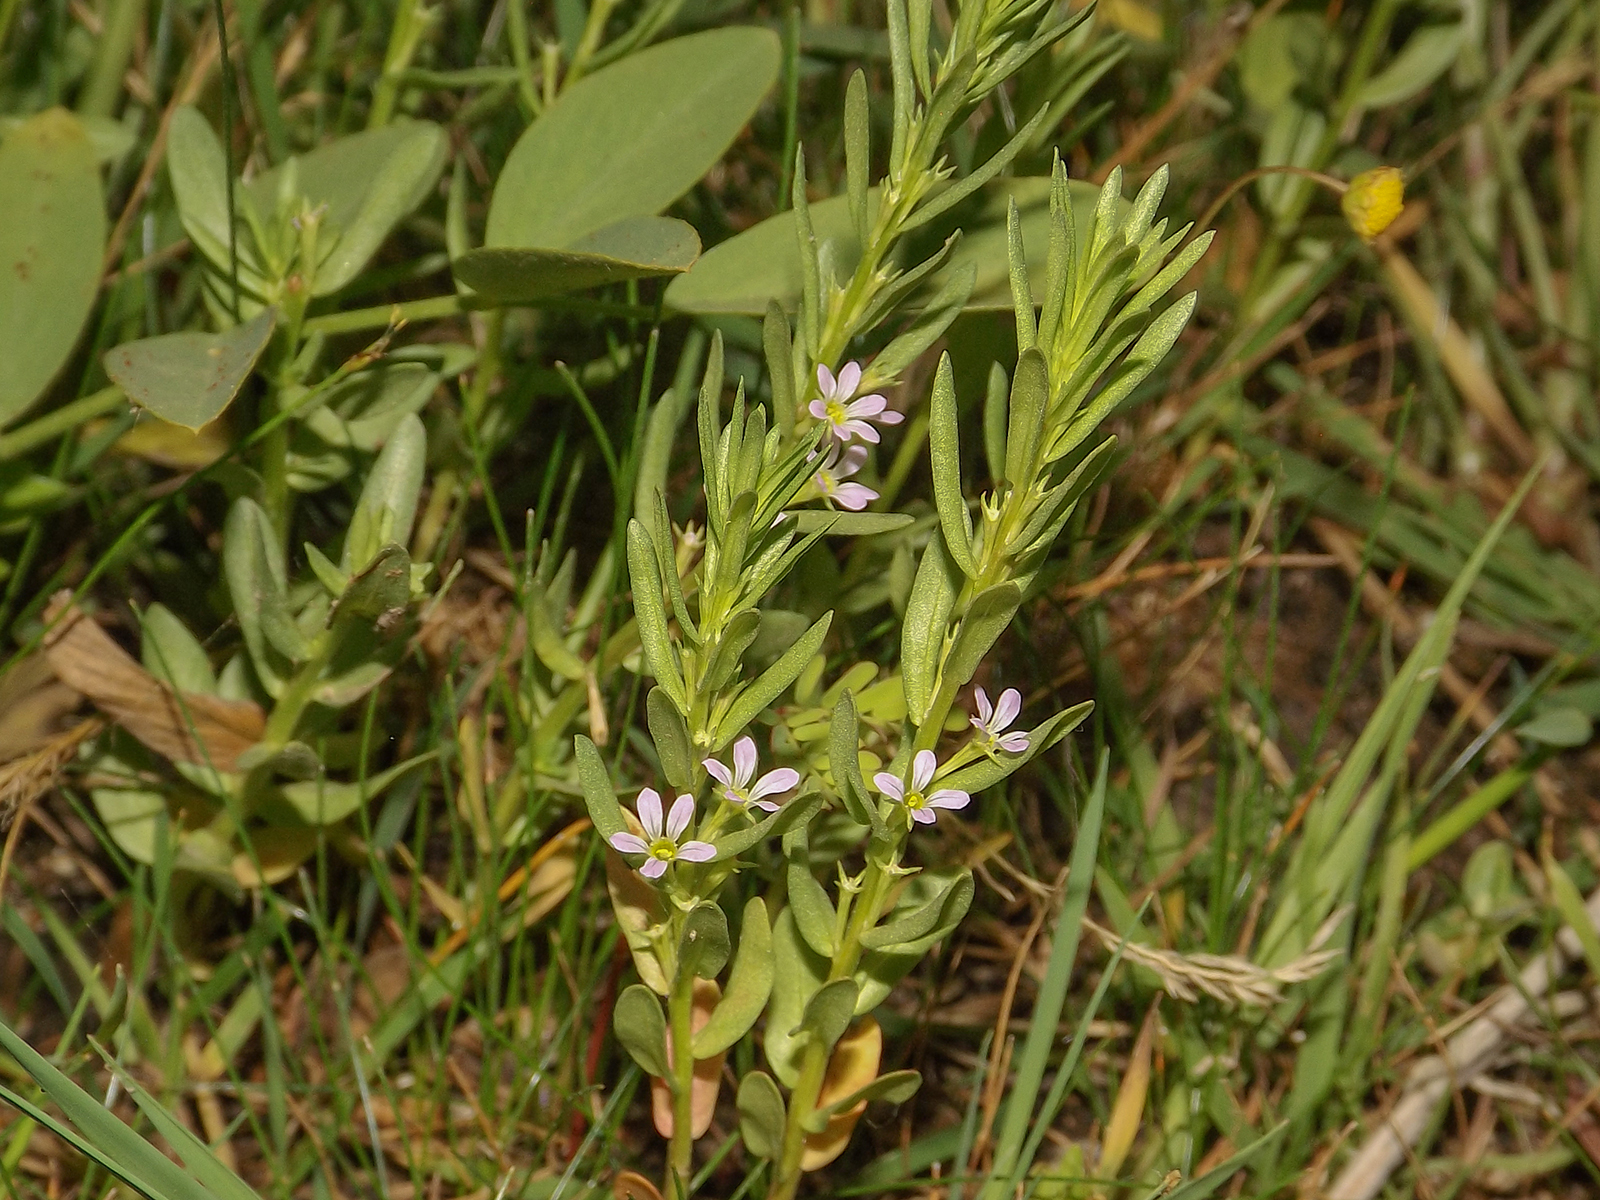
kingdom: Plantae
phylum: Tracheophyta
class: Magnoliopsida
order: Myrtales
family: Lythraceae
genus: Lythrum
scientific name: Lythrum hyssopifolia
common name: Grass-poly
